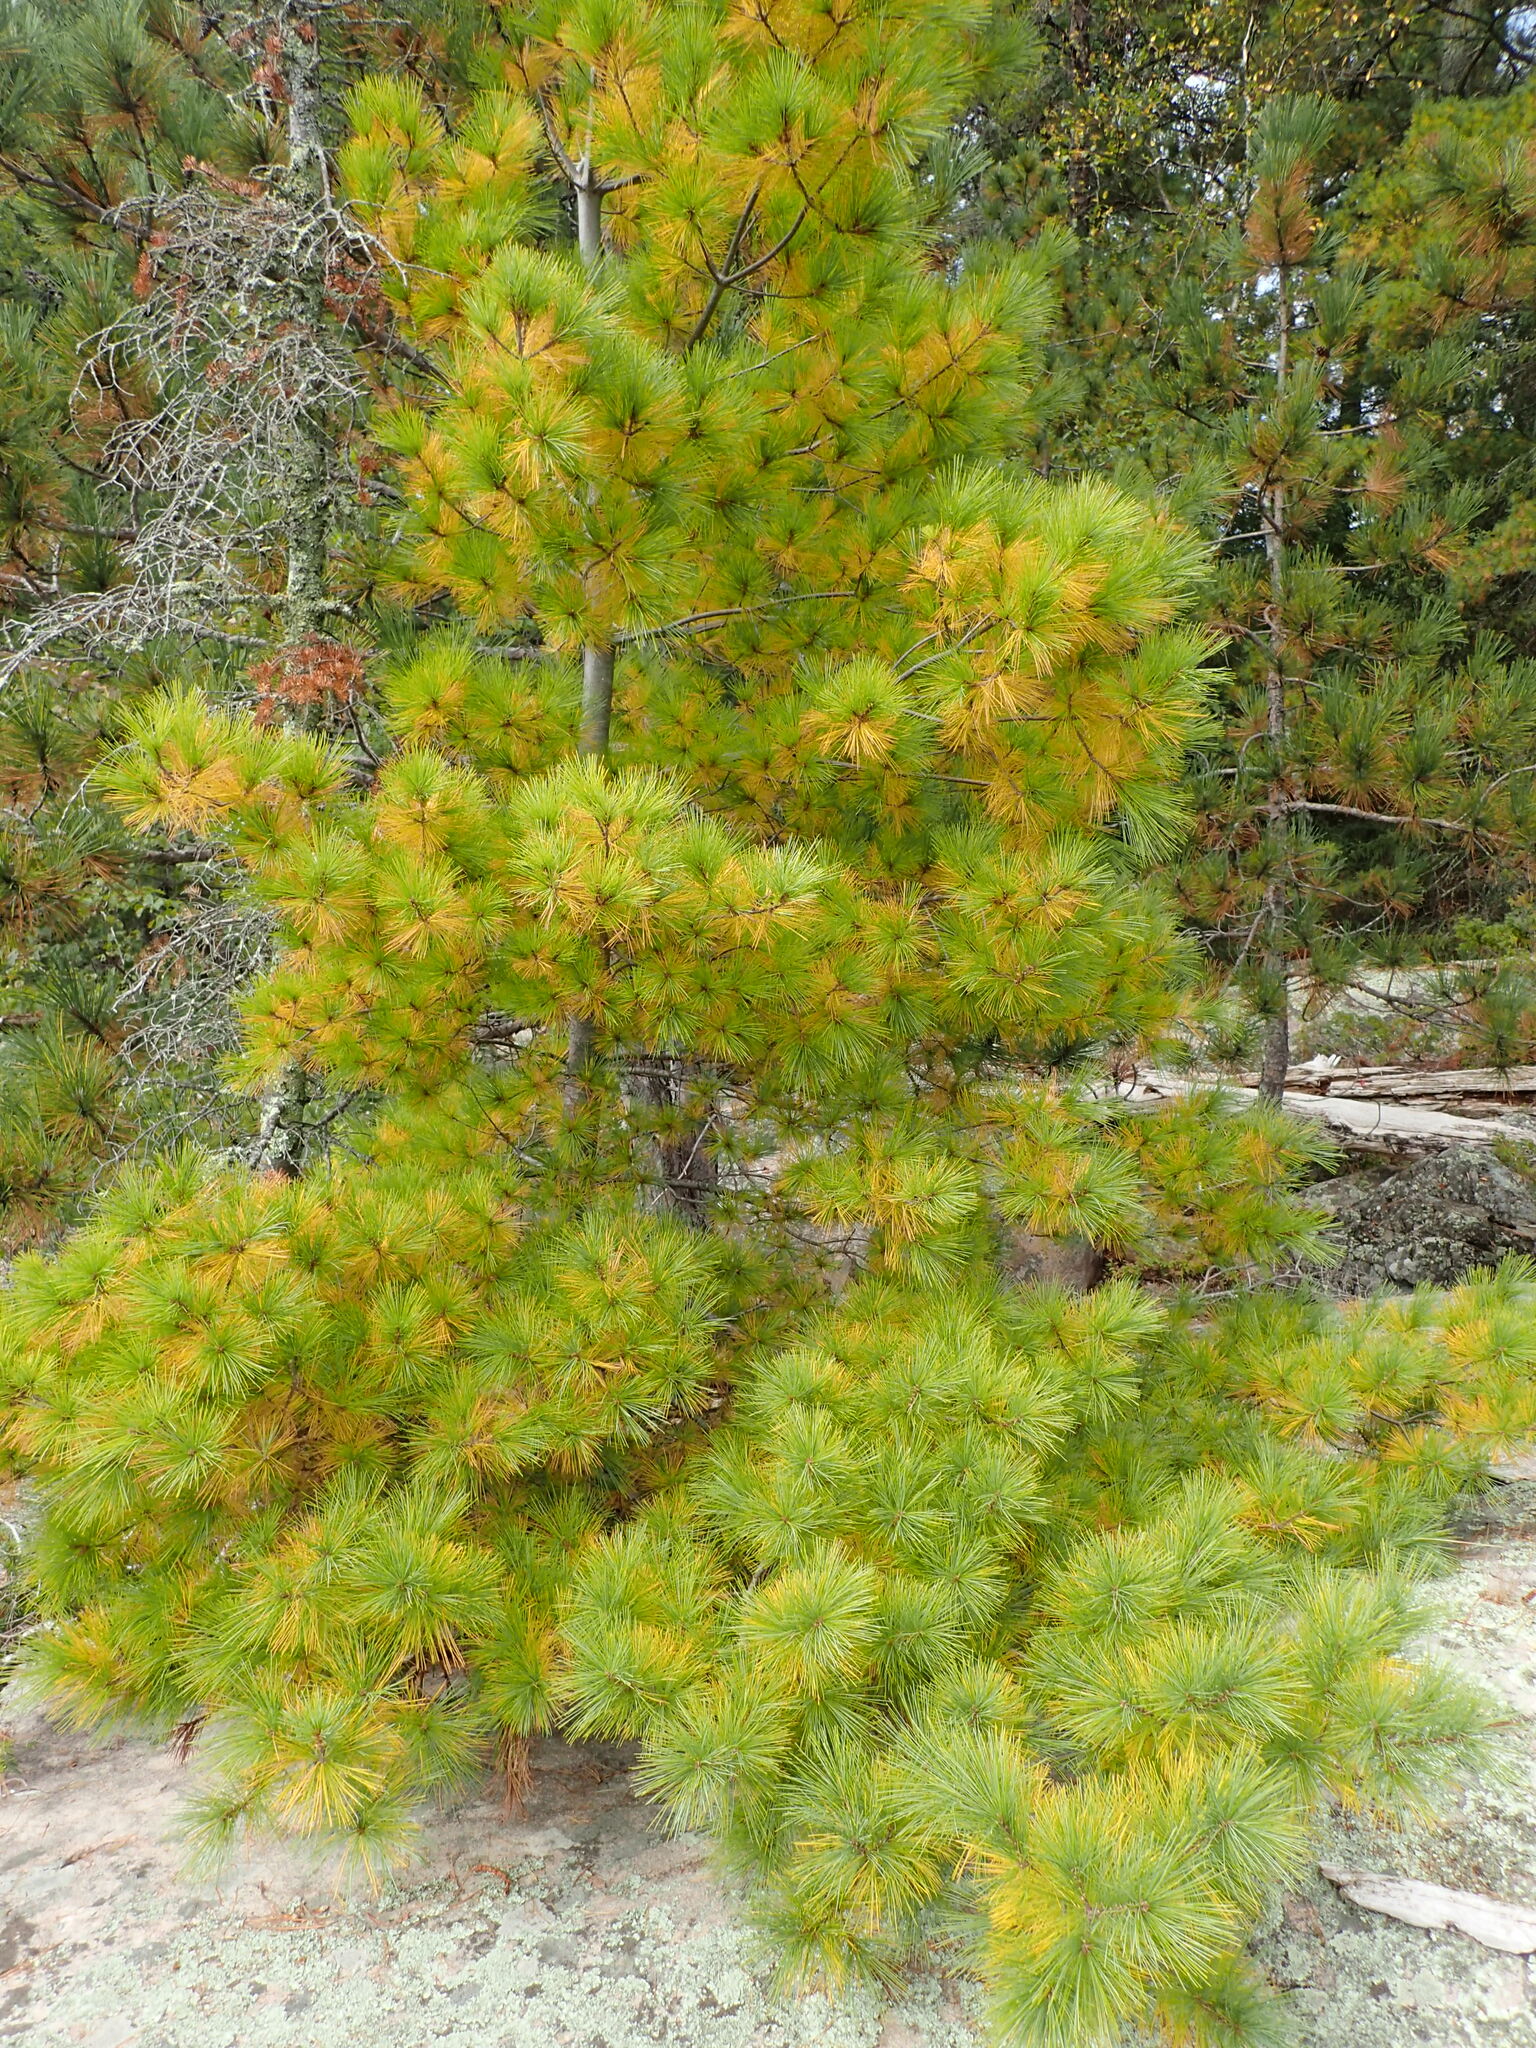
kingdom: Plantae
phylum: Tracheophyta
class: Pinopsida
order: Pinales
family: Pinaceae
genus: Pinus
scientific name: Pinus strobus
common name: Weymouth pine
